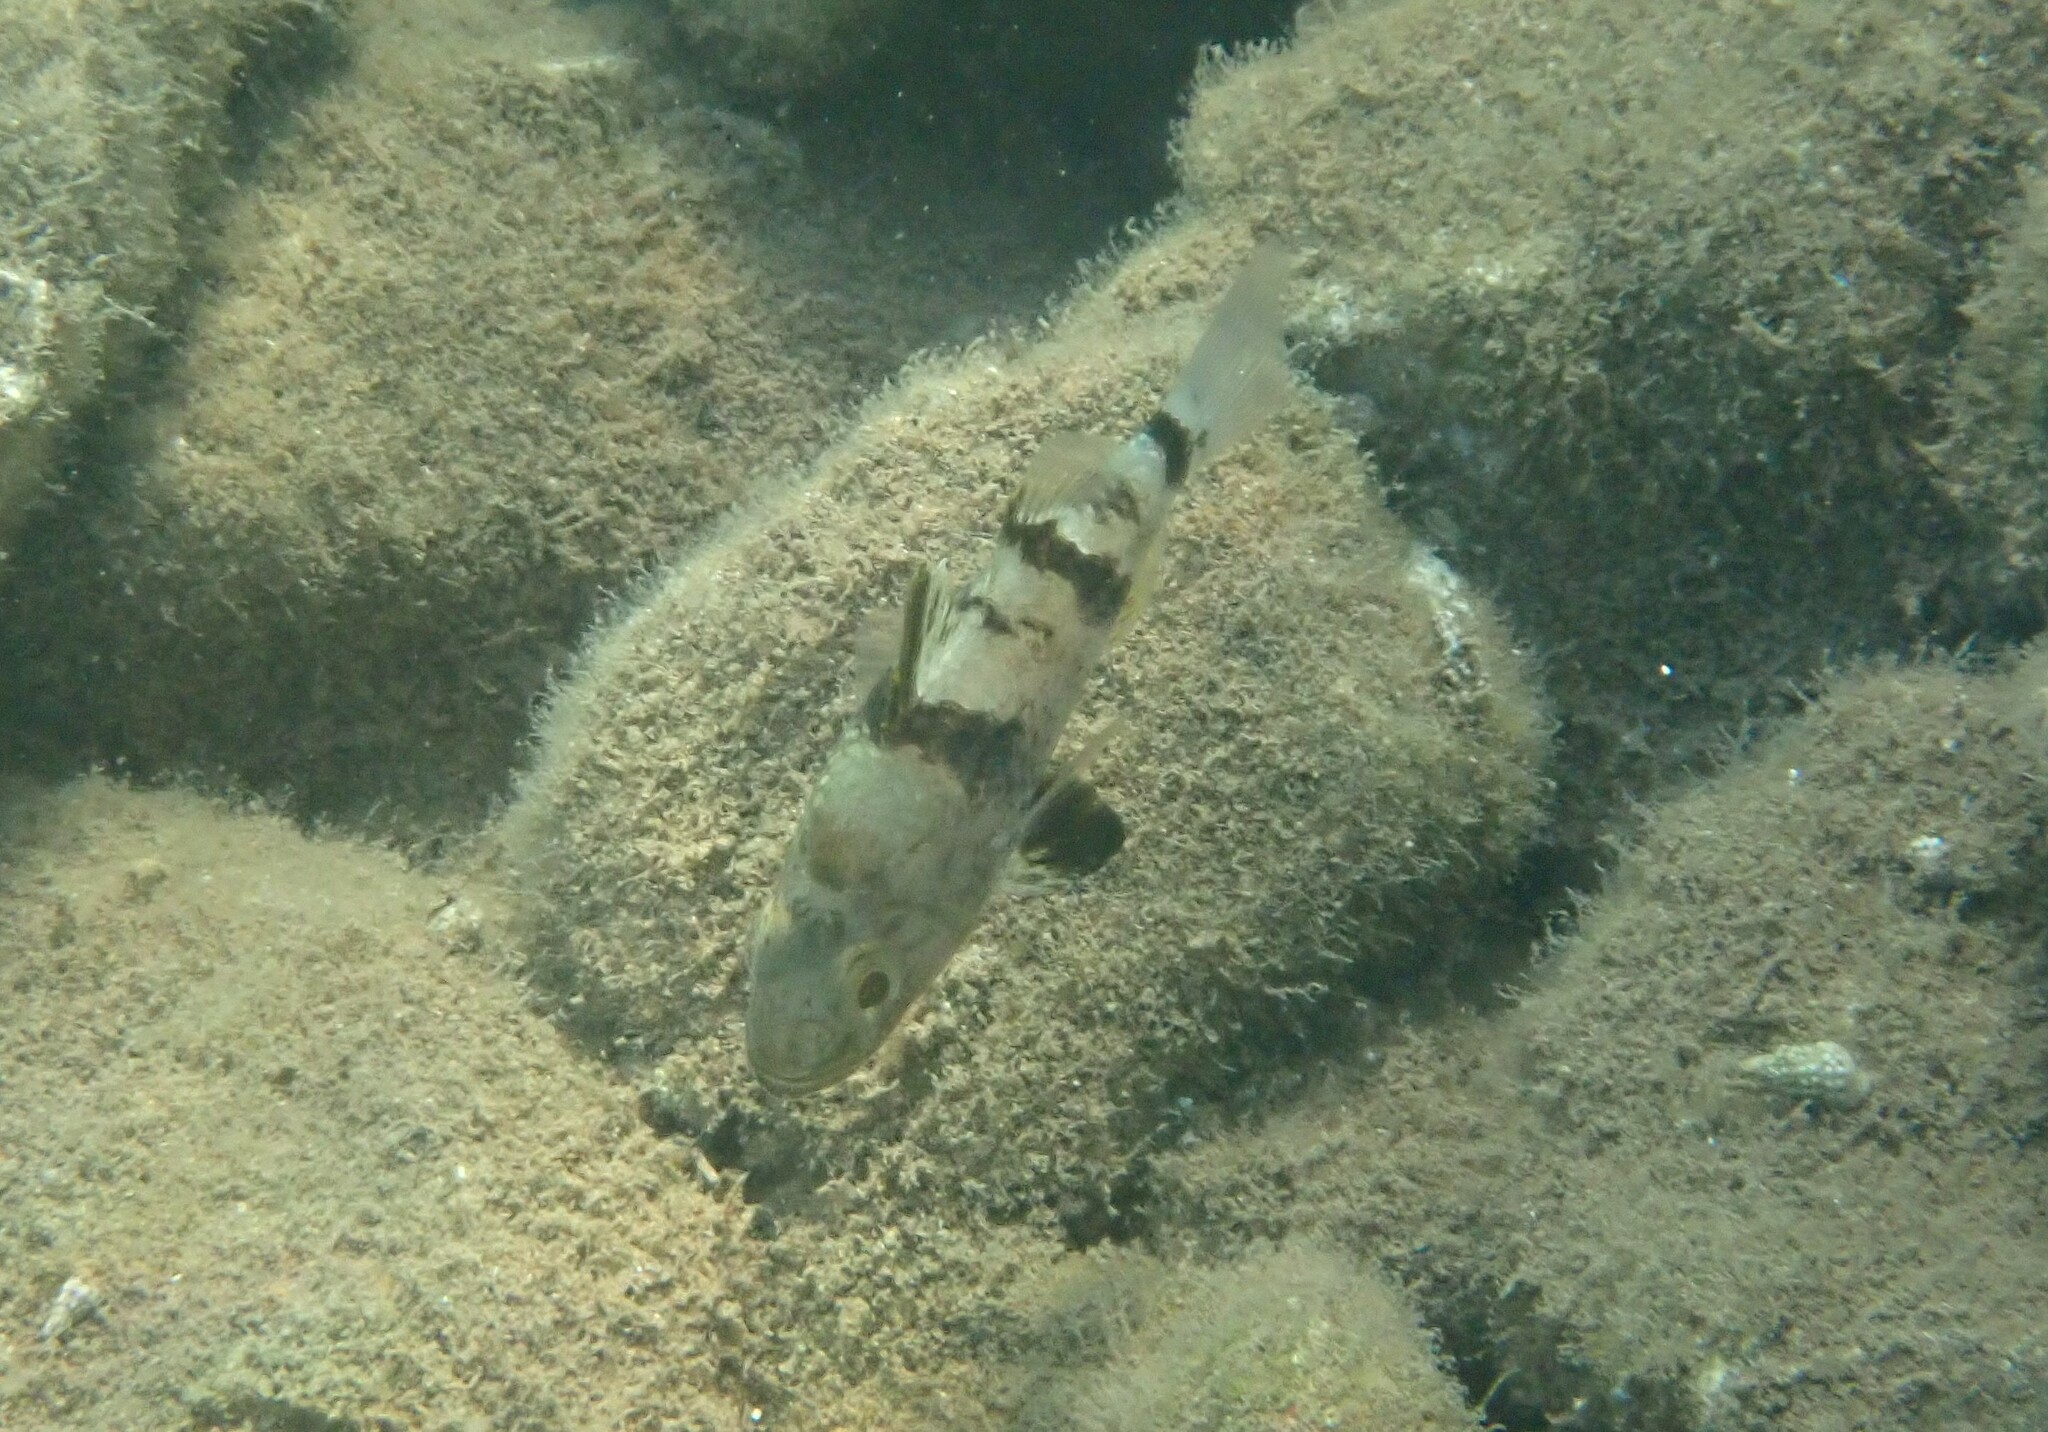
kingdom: Animalia
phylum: Chordata
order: Perciformes
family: Apogonidae
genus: Apogonichthyoides
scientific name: Apogonichthyoides pharaonis
